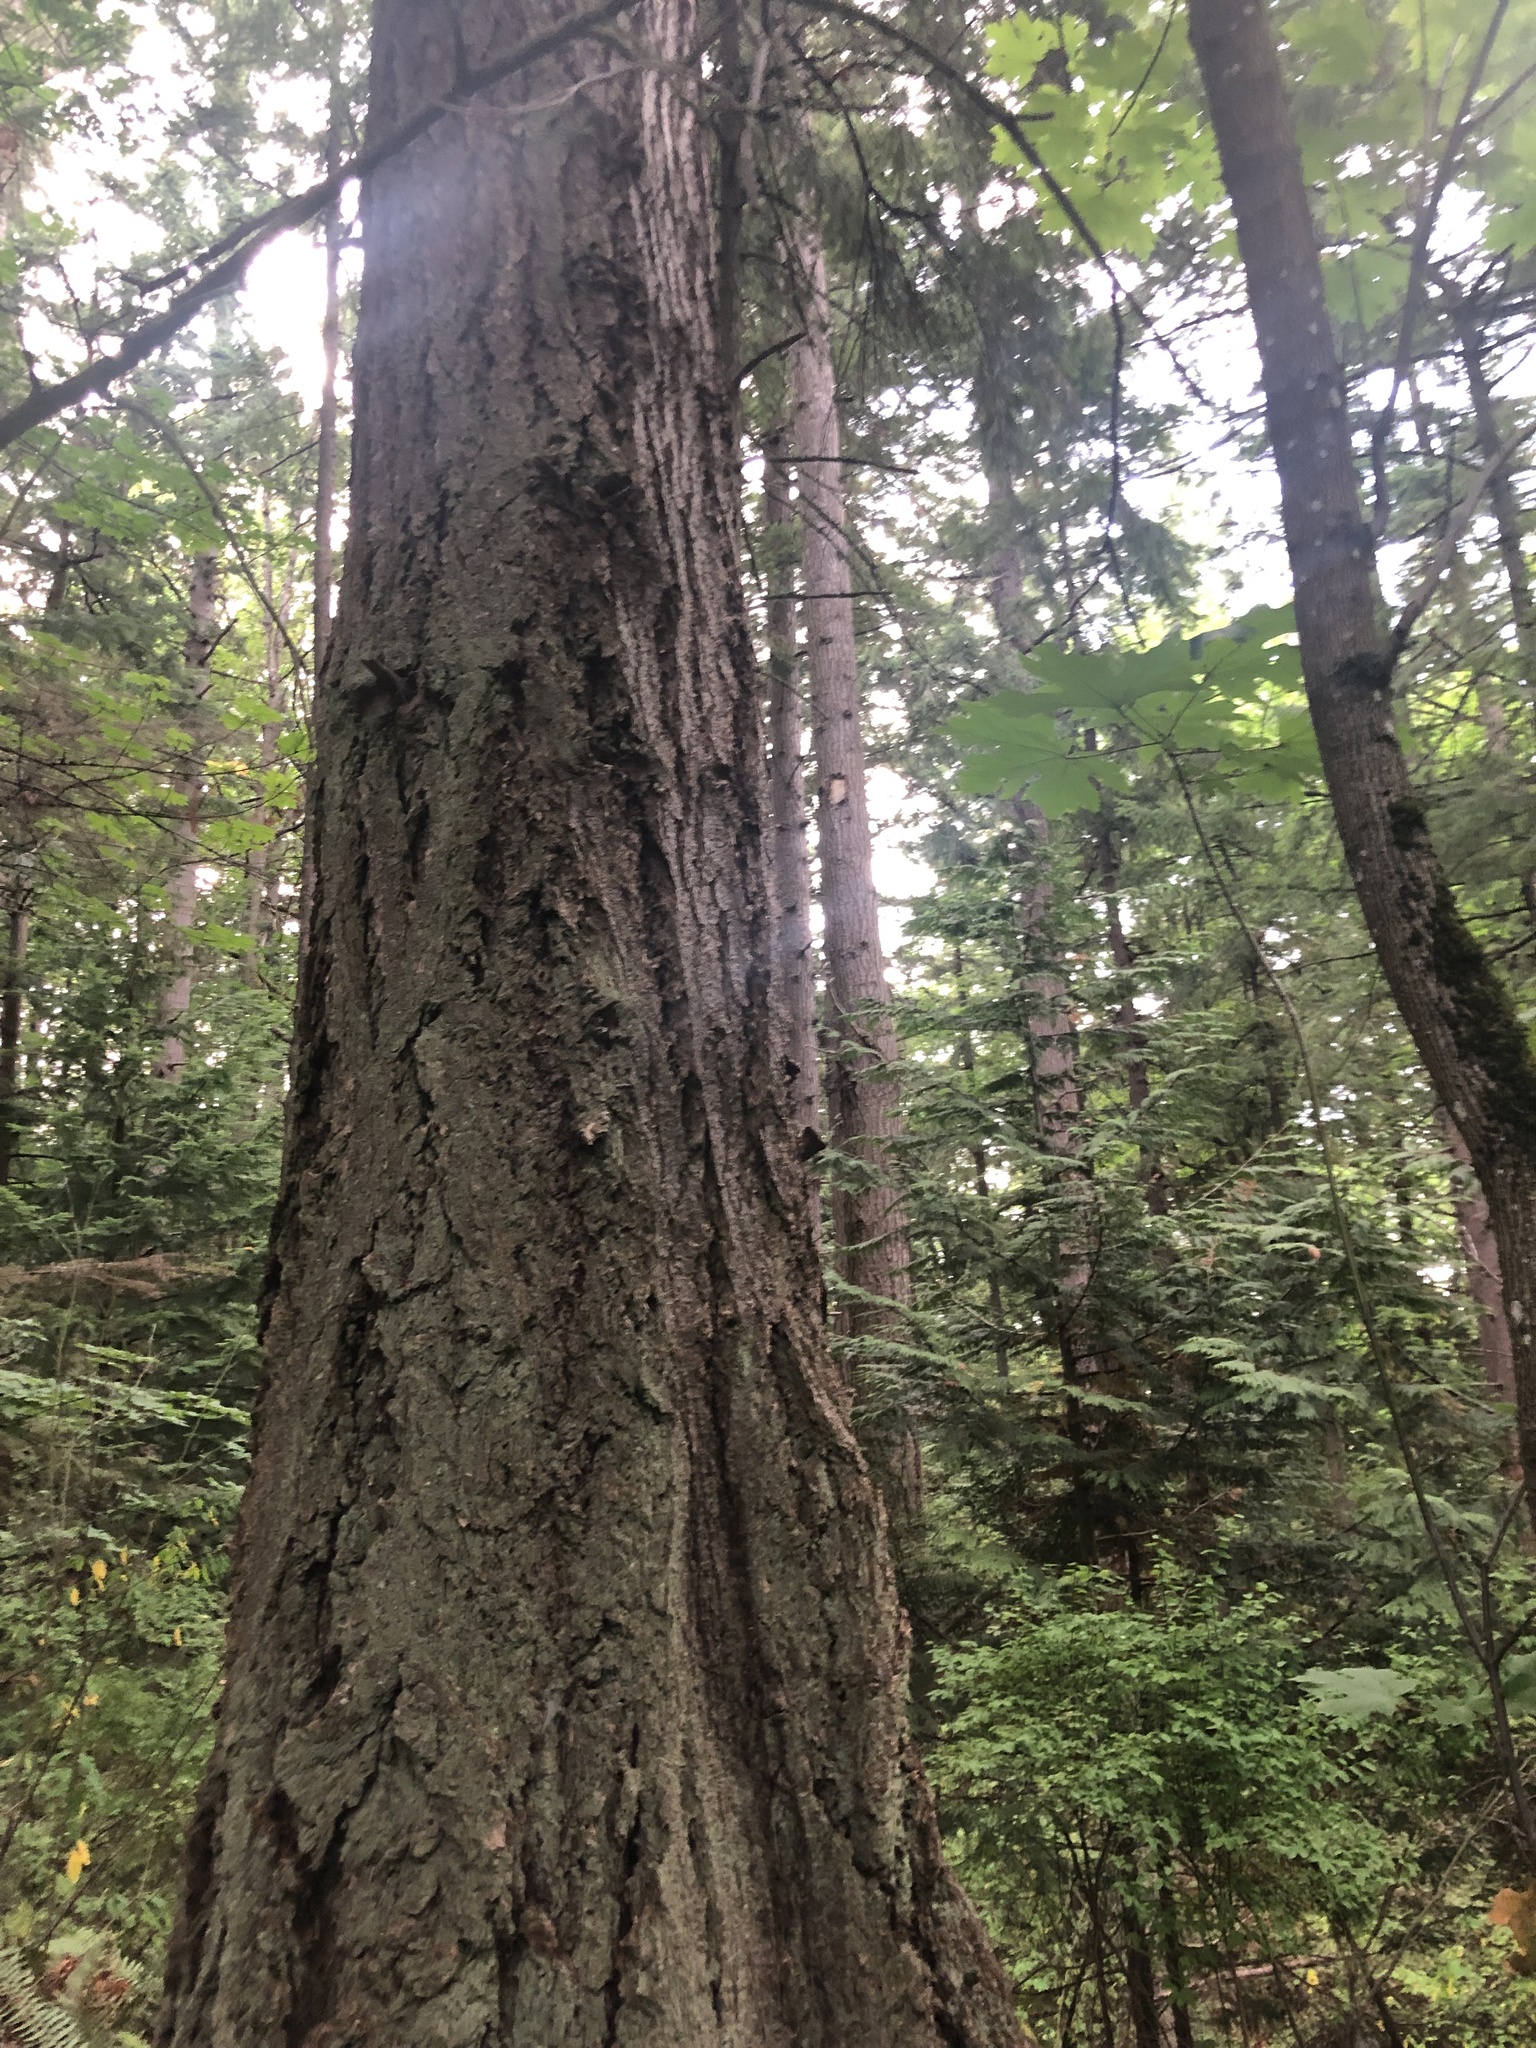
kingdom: Animalia
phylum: Chordata
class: Mammalia
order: Rodentia
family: Sciuridae
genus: Tamiasciurus
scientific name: Tamiasciurus douglasii
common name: Douglas's squirrel
